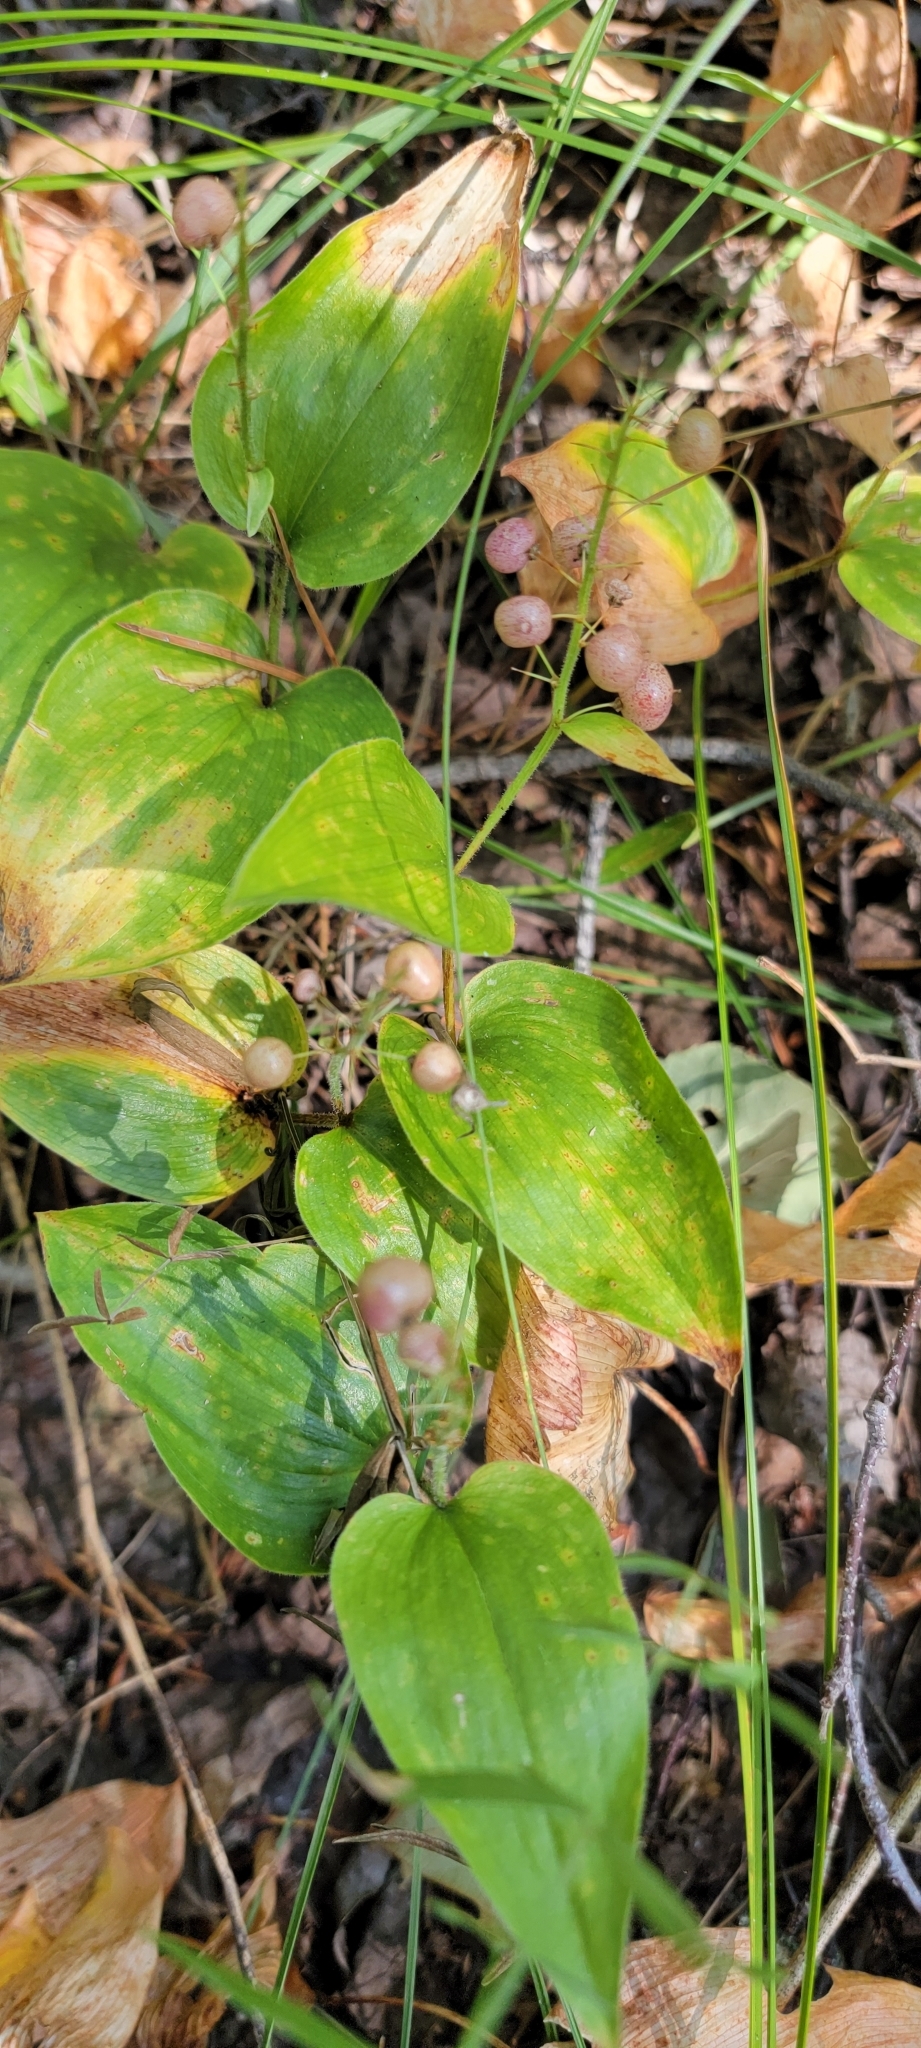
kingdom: Plantae
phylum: Tracheophyta
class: Liliopsida
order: Asparagales
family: Asparagaceae
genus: Maianthemum
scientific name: Maianthemum canadense
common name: False lily-of-the-valley
